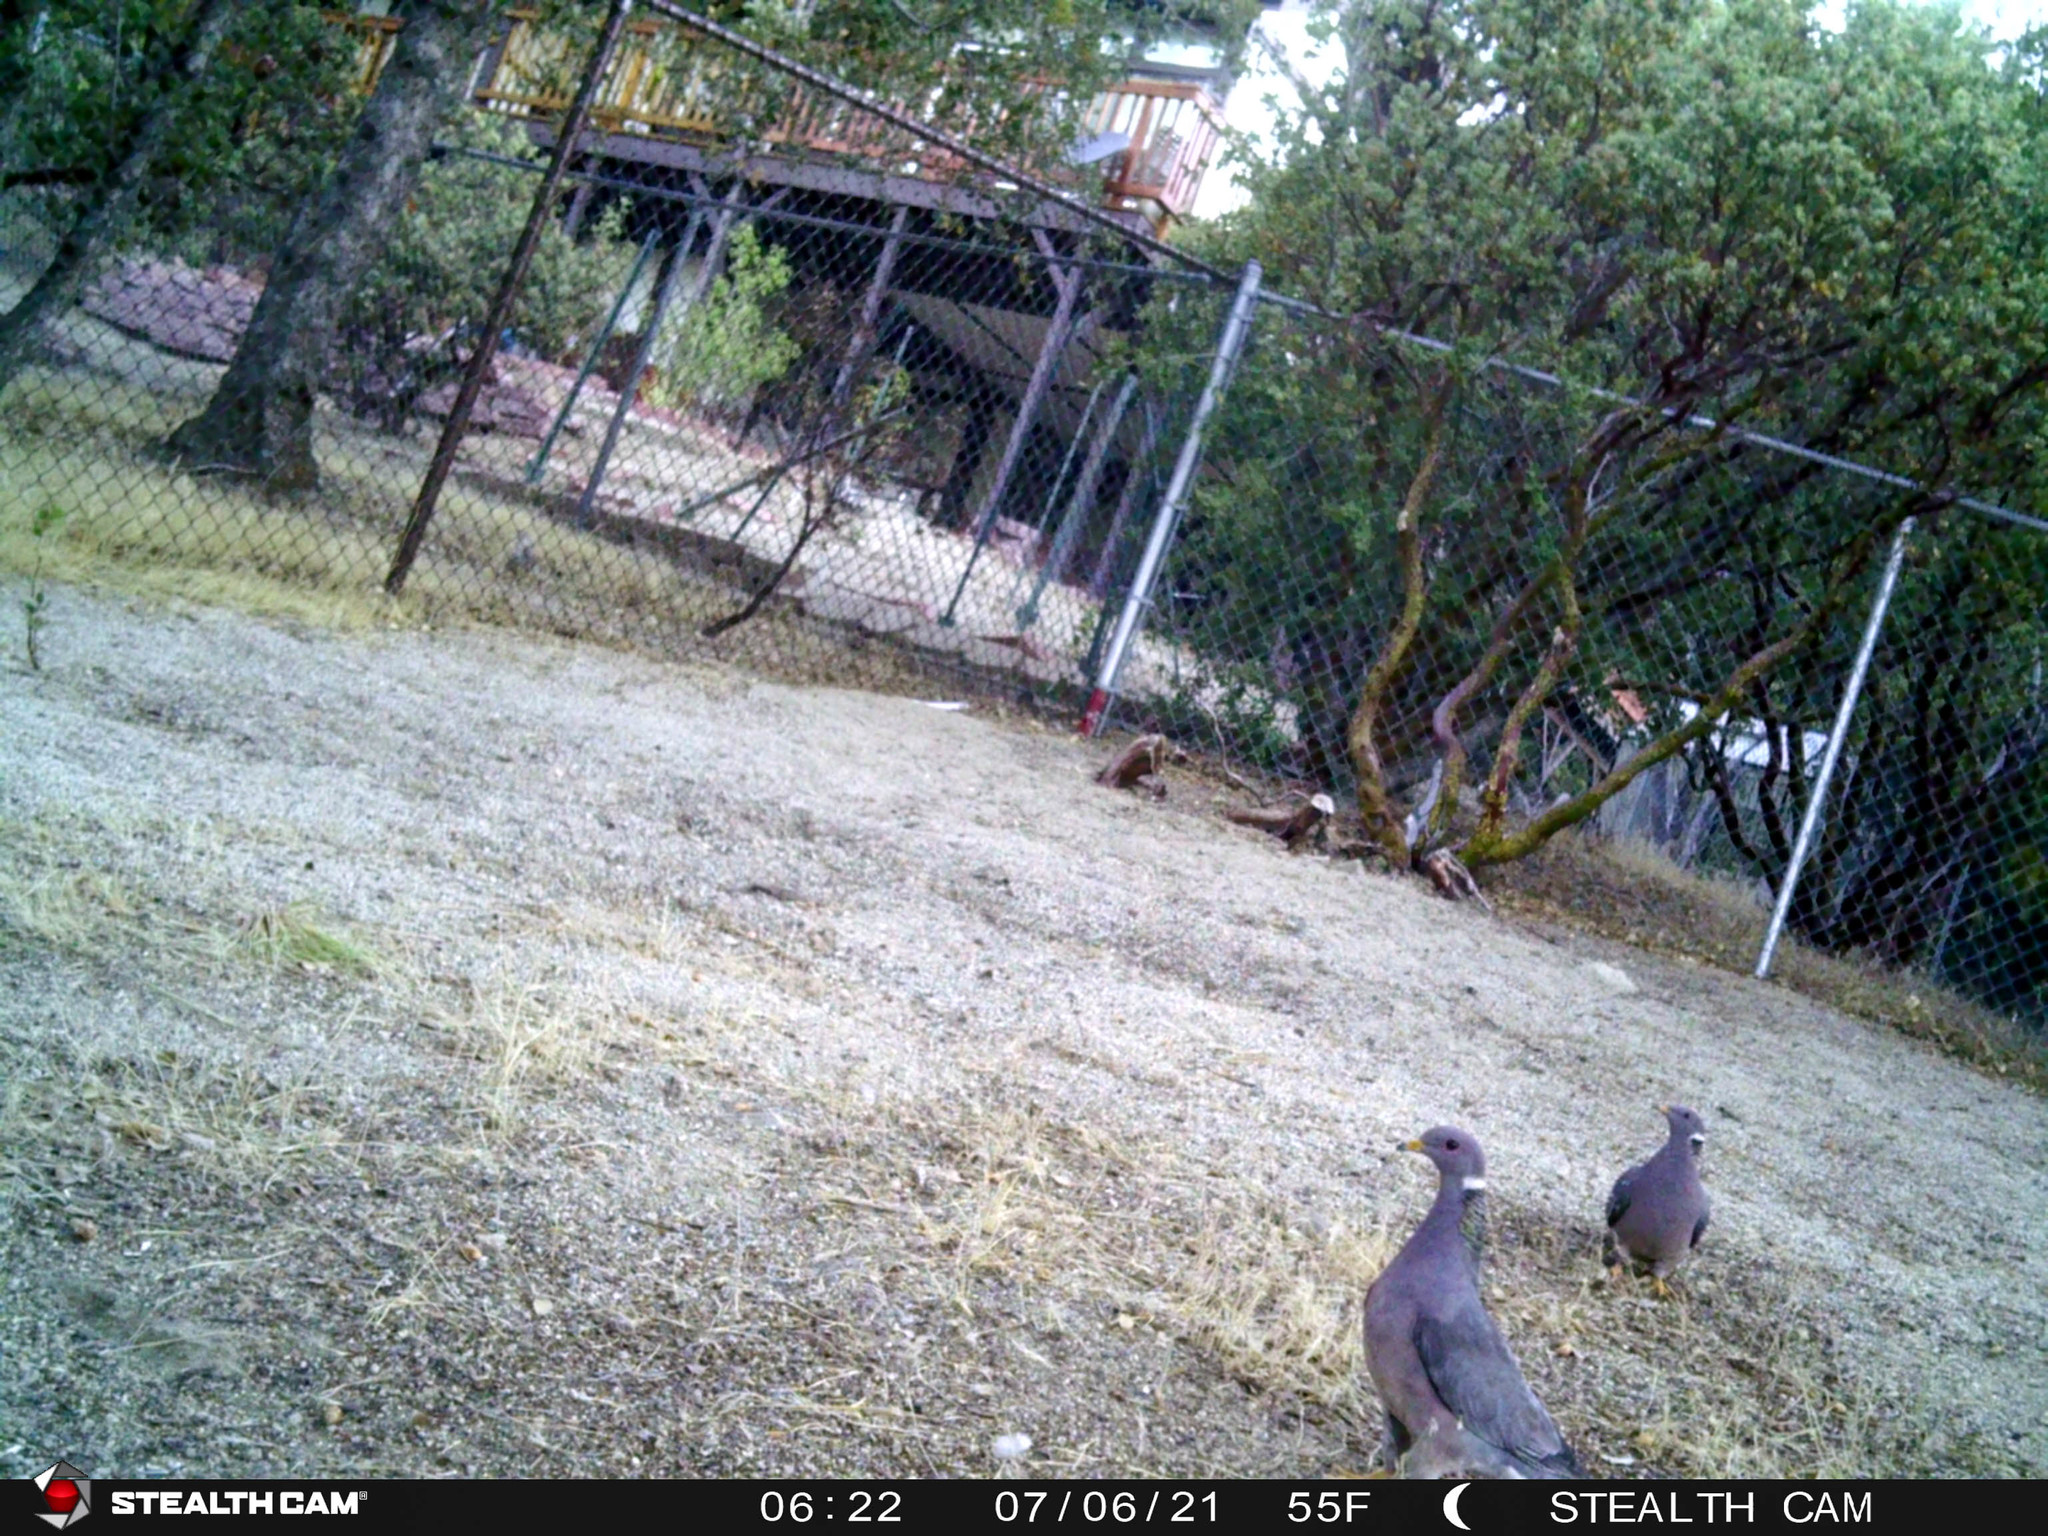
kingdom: Animalia
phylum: Chordata
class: Aves
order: Columbiformes
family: Columbidae
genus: Patagioenas
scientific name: Patagioenas fasciata
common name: Band-tailed pigeon
